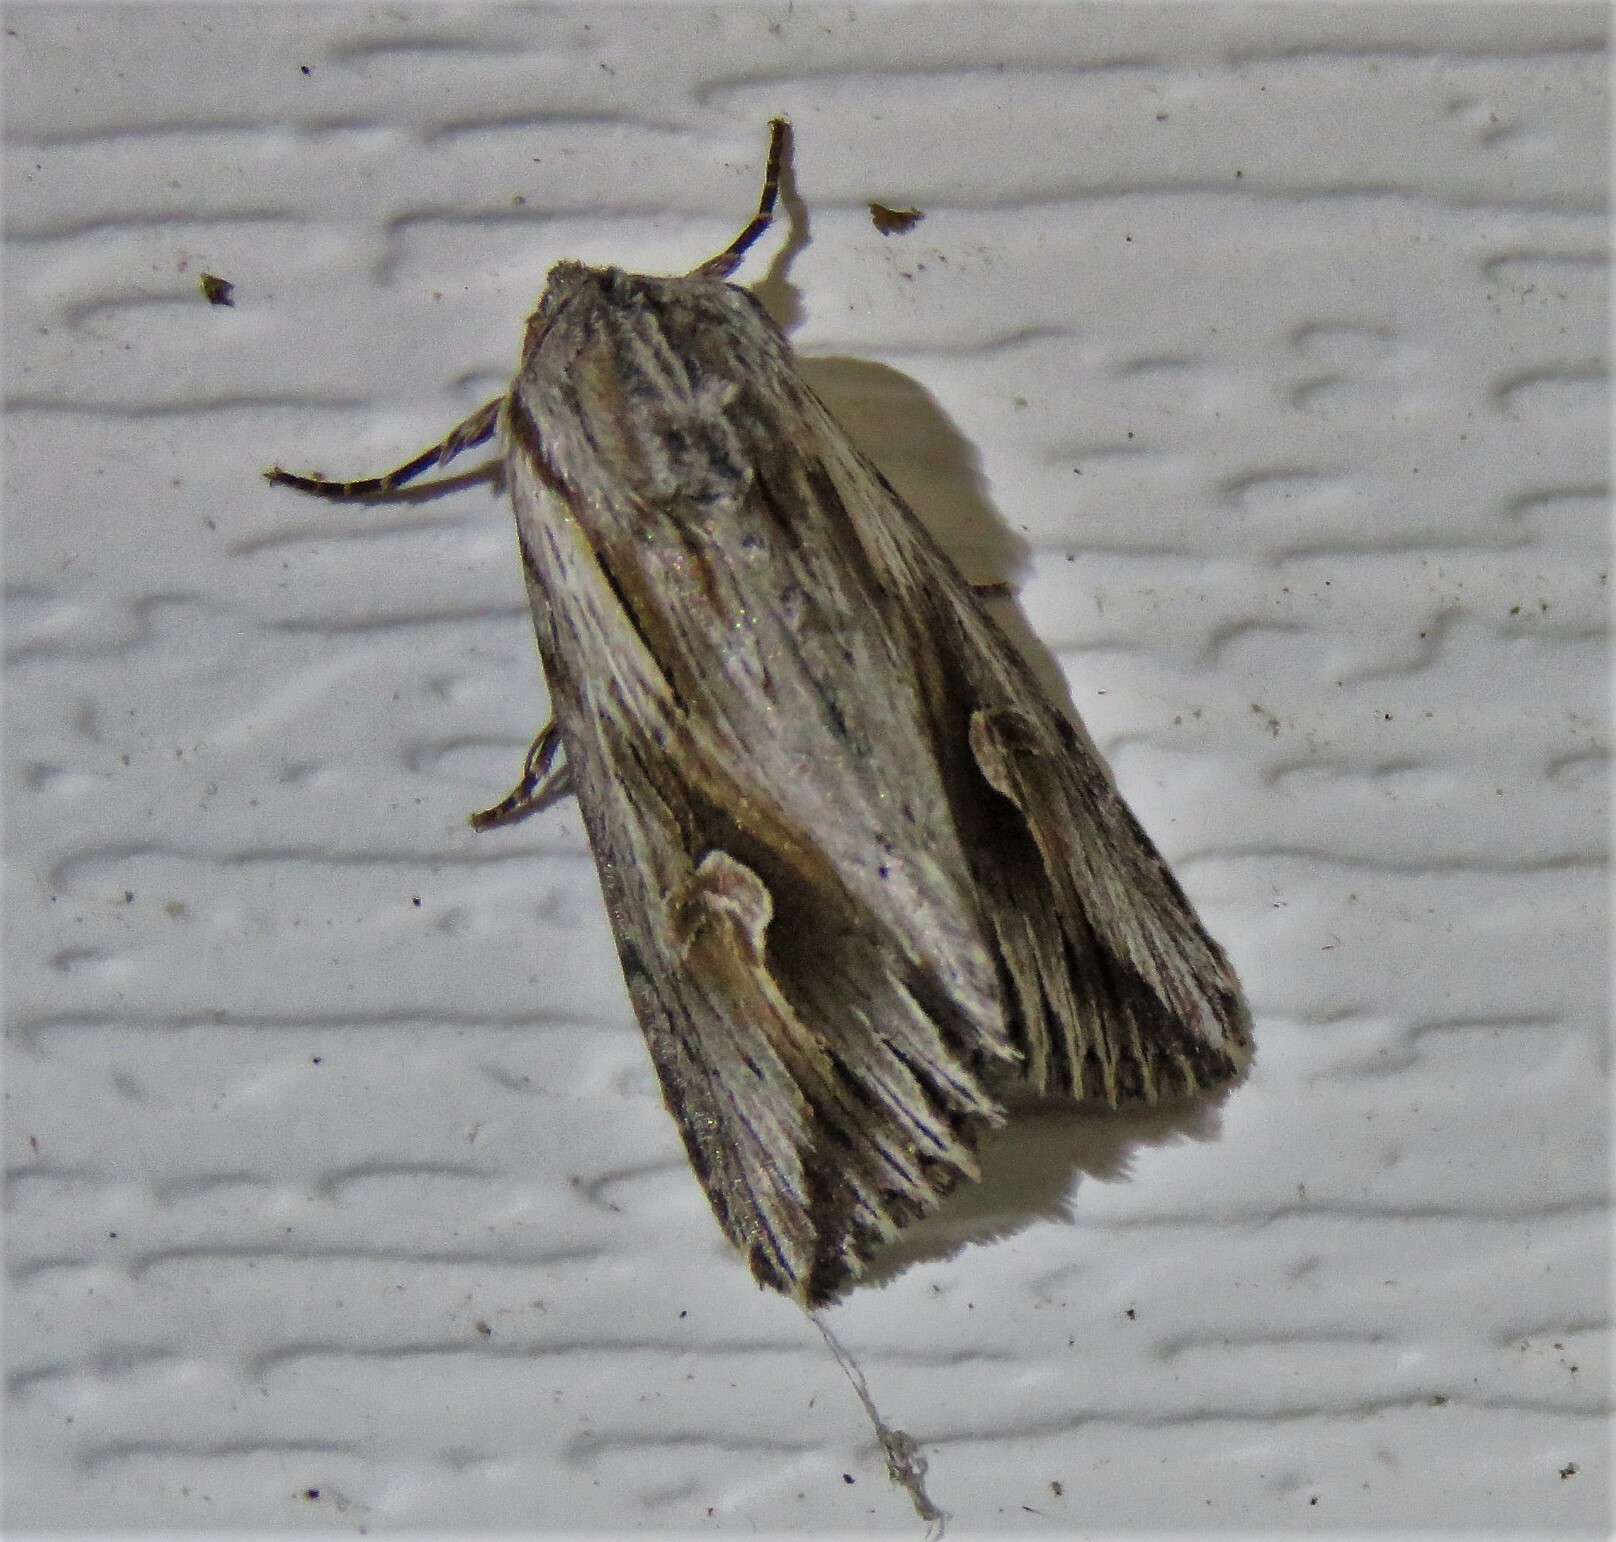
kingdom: Animalia
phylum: Arthropoda
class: Insecta
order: Lepidoptera
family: Noctuidae
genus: Nedra
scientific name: Nedra ramosula
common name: Gray half-spot
